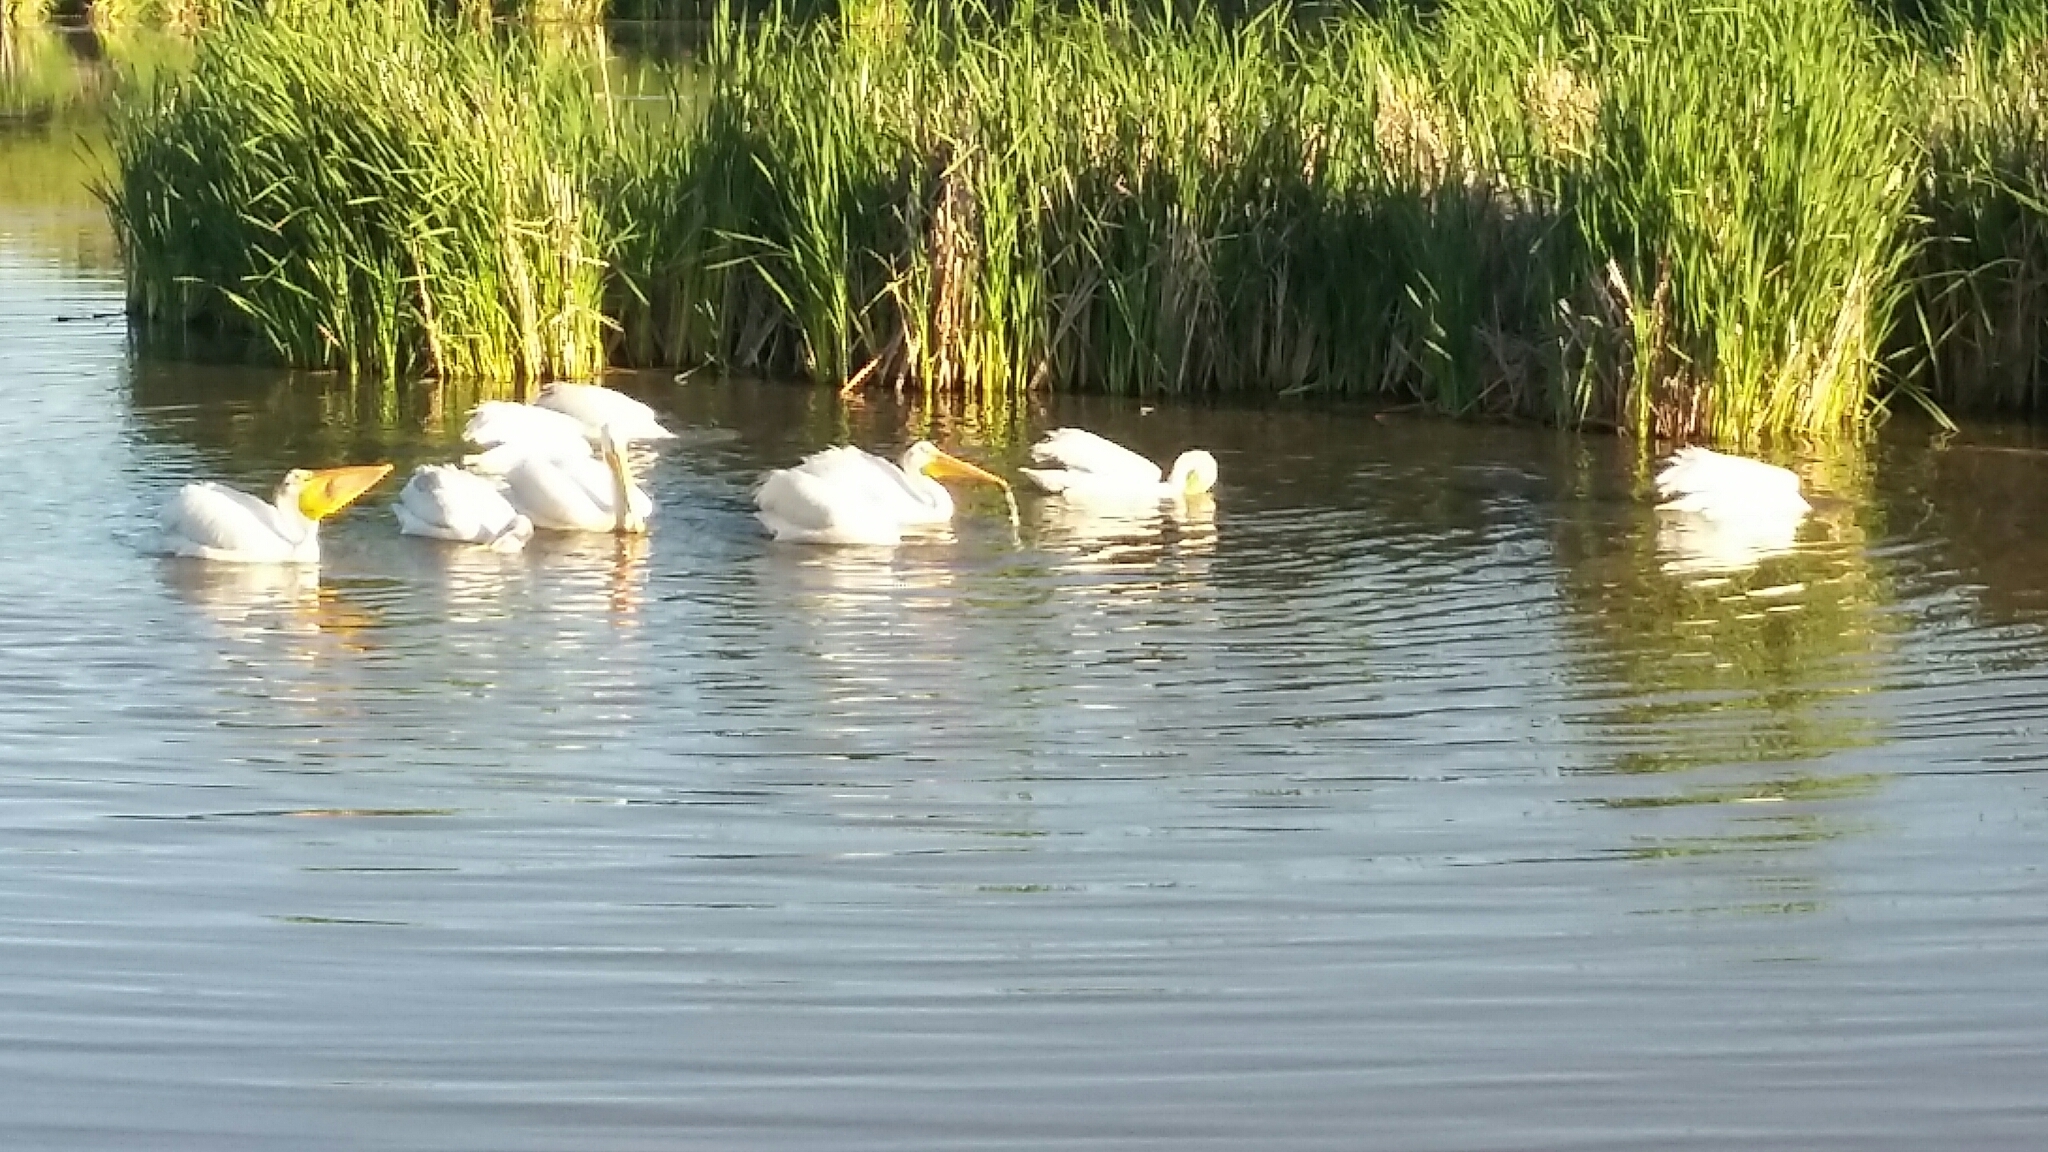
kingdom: Animalia
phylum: Chordata
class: Aves
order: Pelecaniformes
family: Pelecanidae
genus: Pelecanus
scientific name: Pelecanus erythrorhynchos
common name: American white pelican
